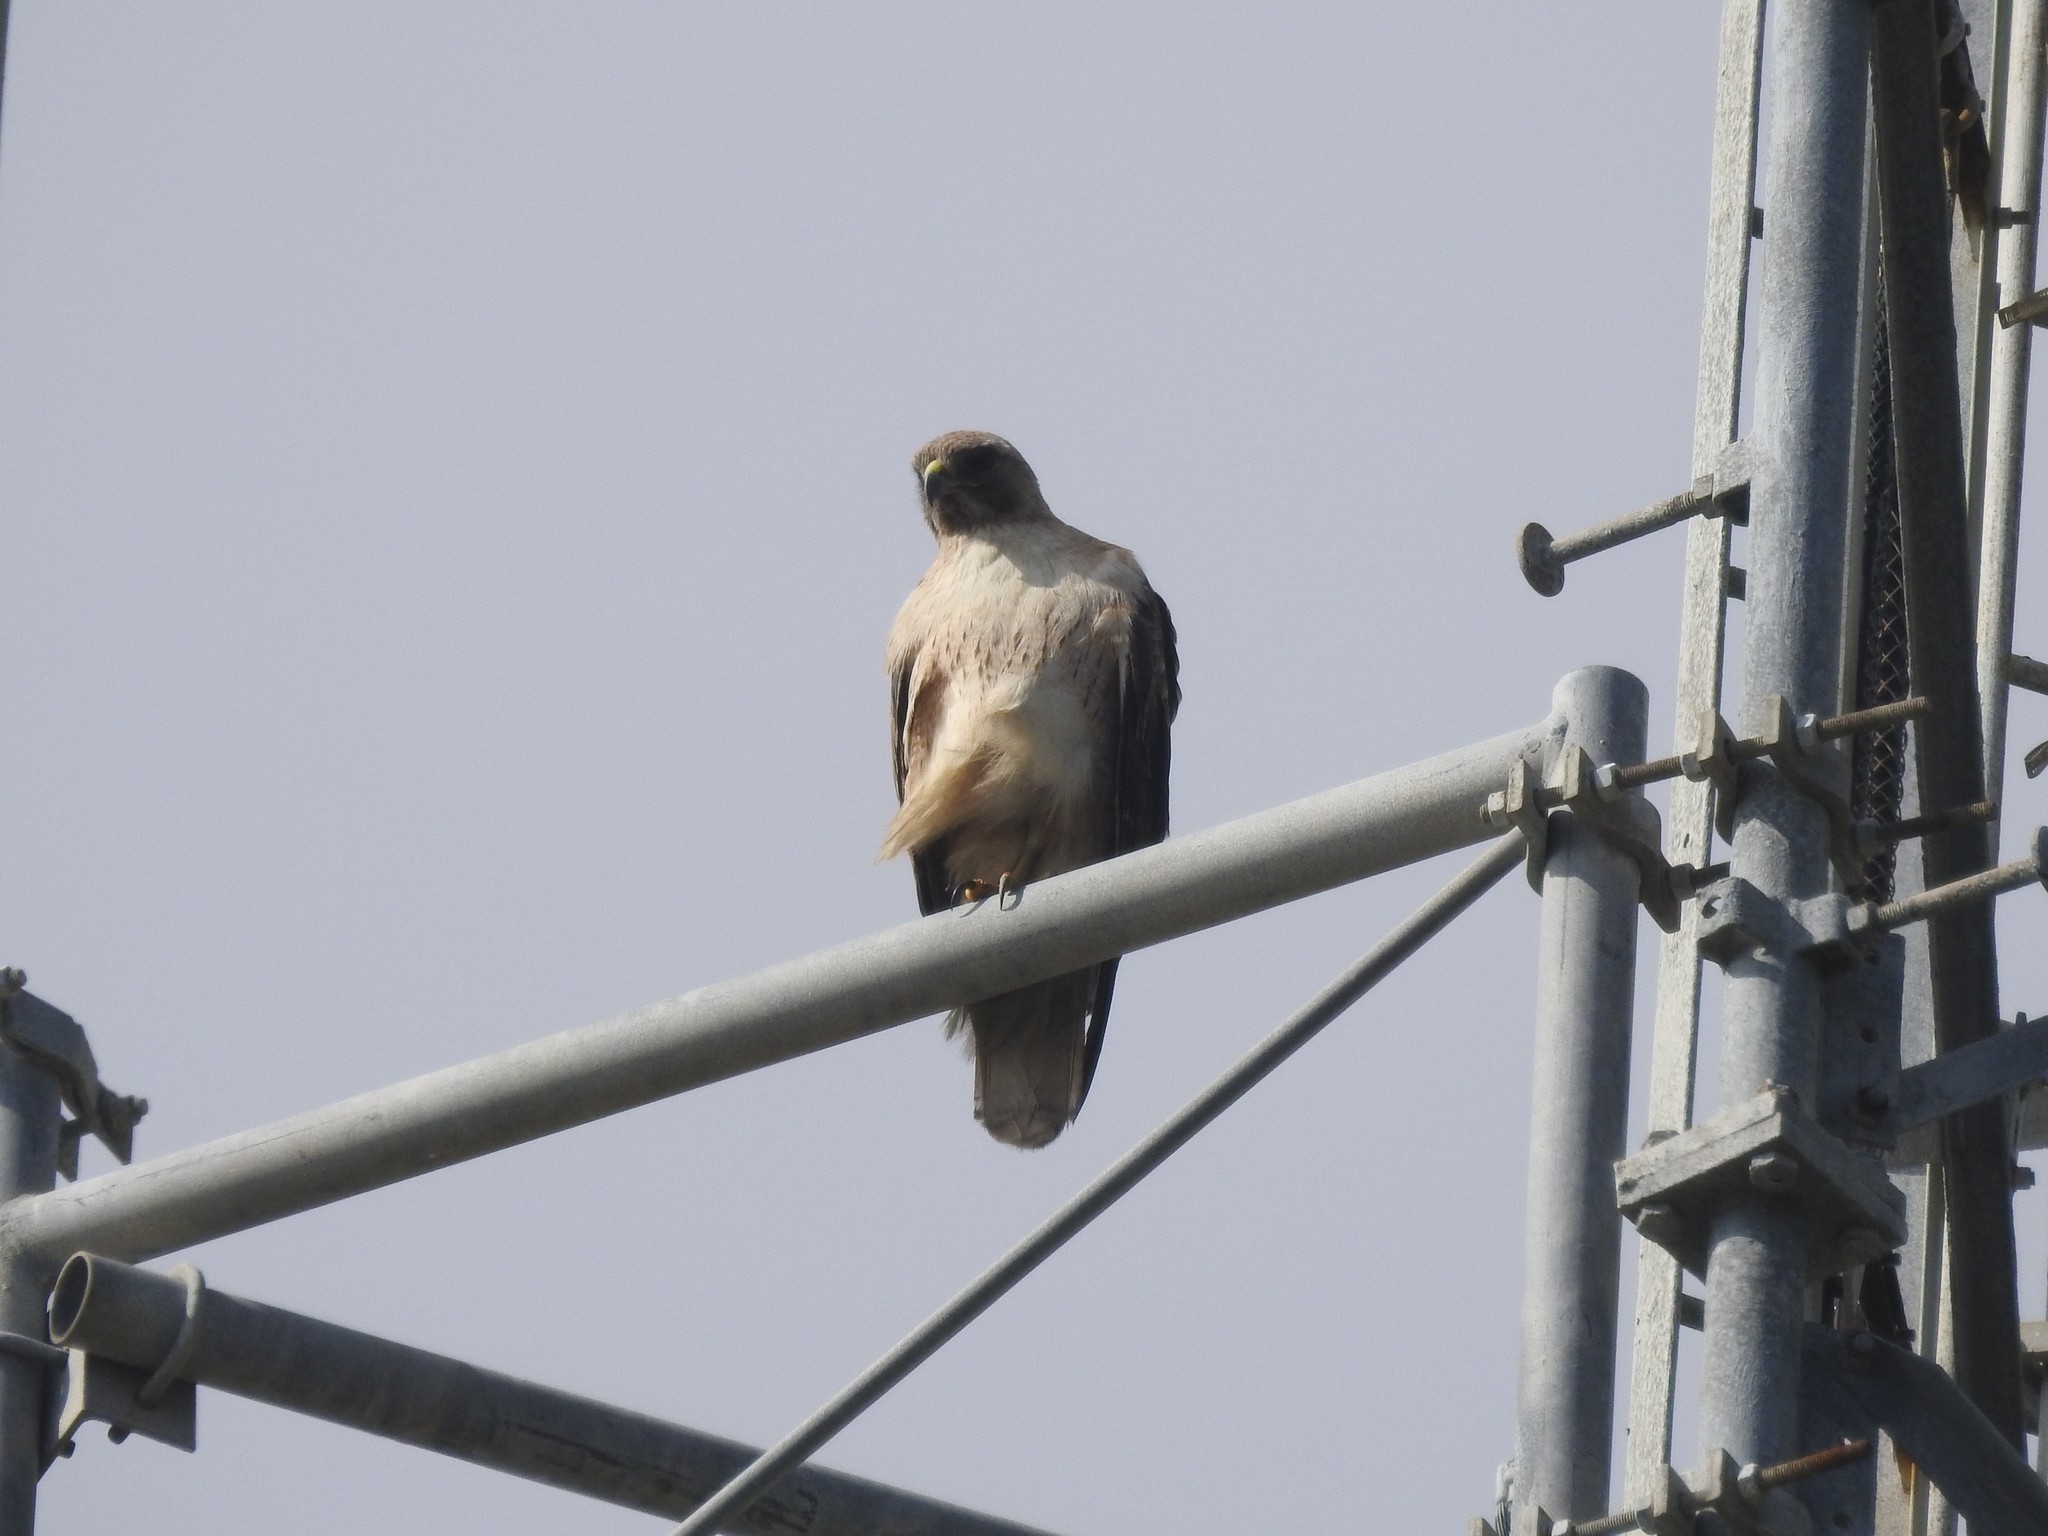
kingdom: Animalia
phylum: Chordata
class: Aves
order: Accipitriformes
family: Accipitridae
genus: Buteo
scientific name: Buteo jamaicensis
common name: Red-tailed hawk
